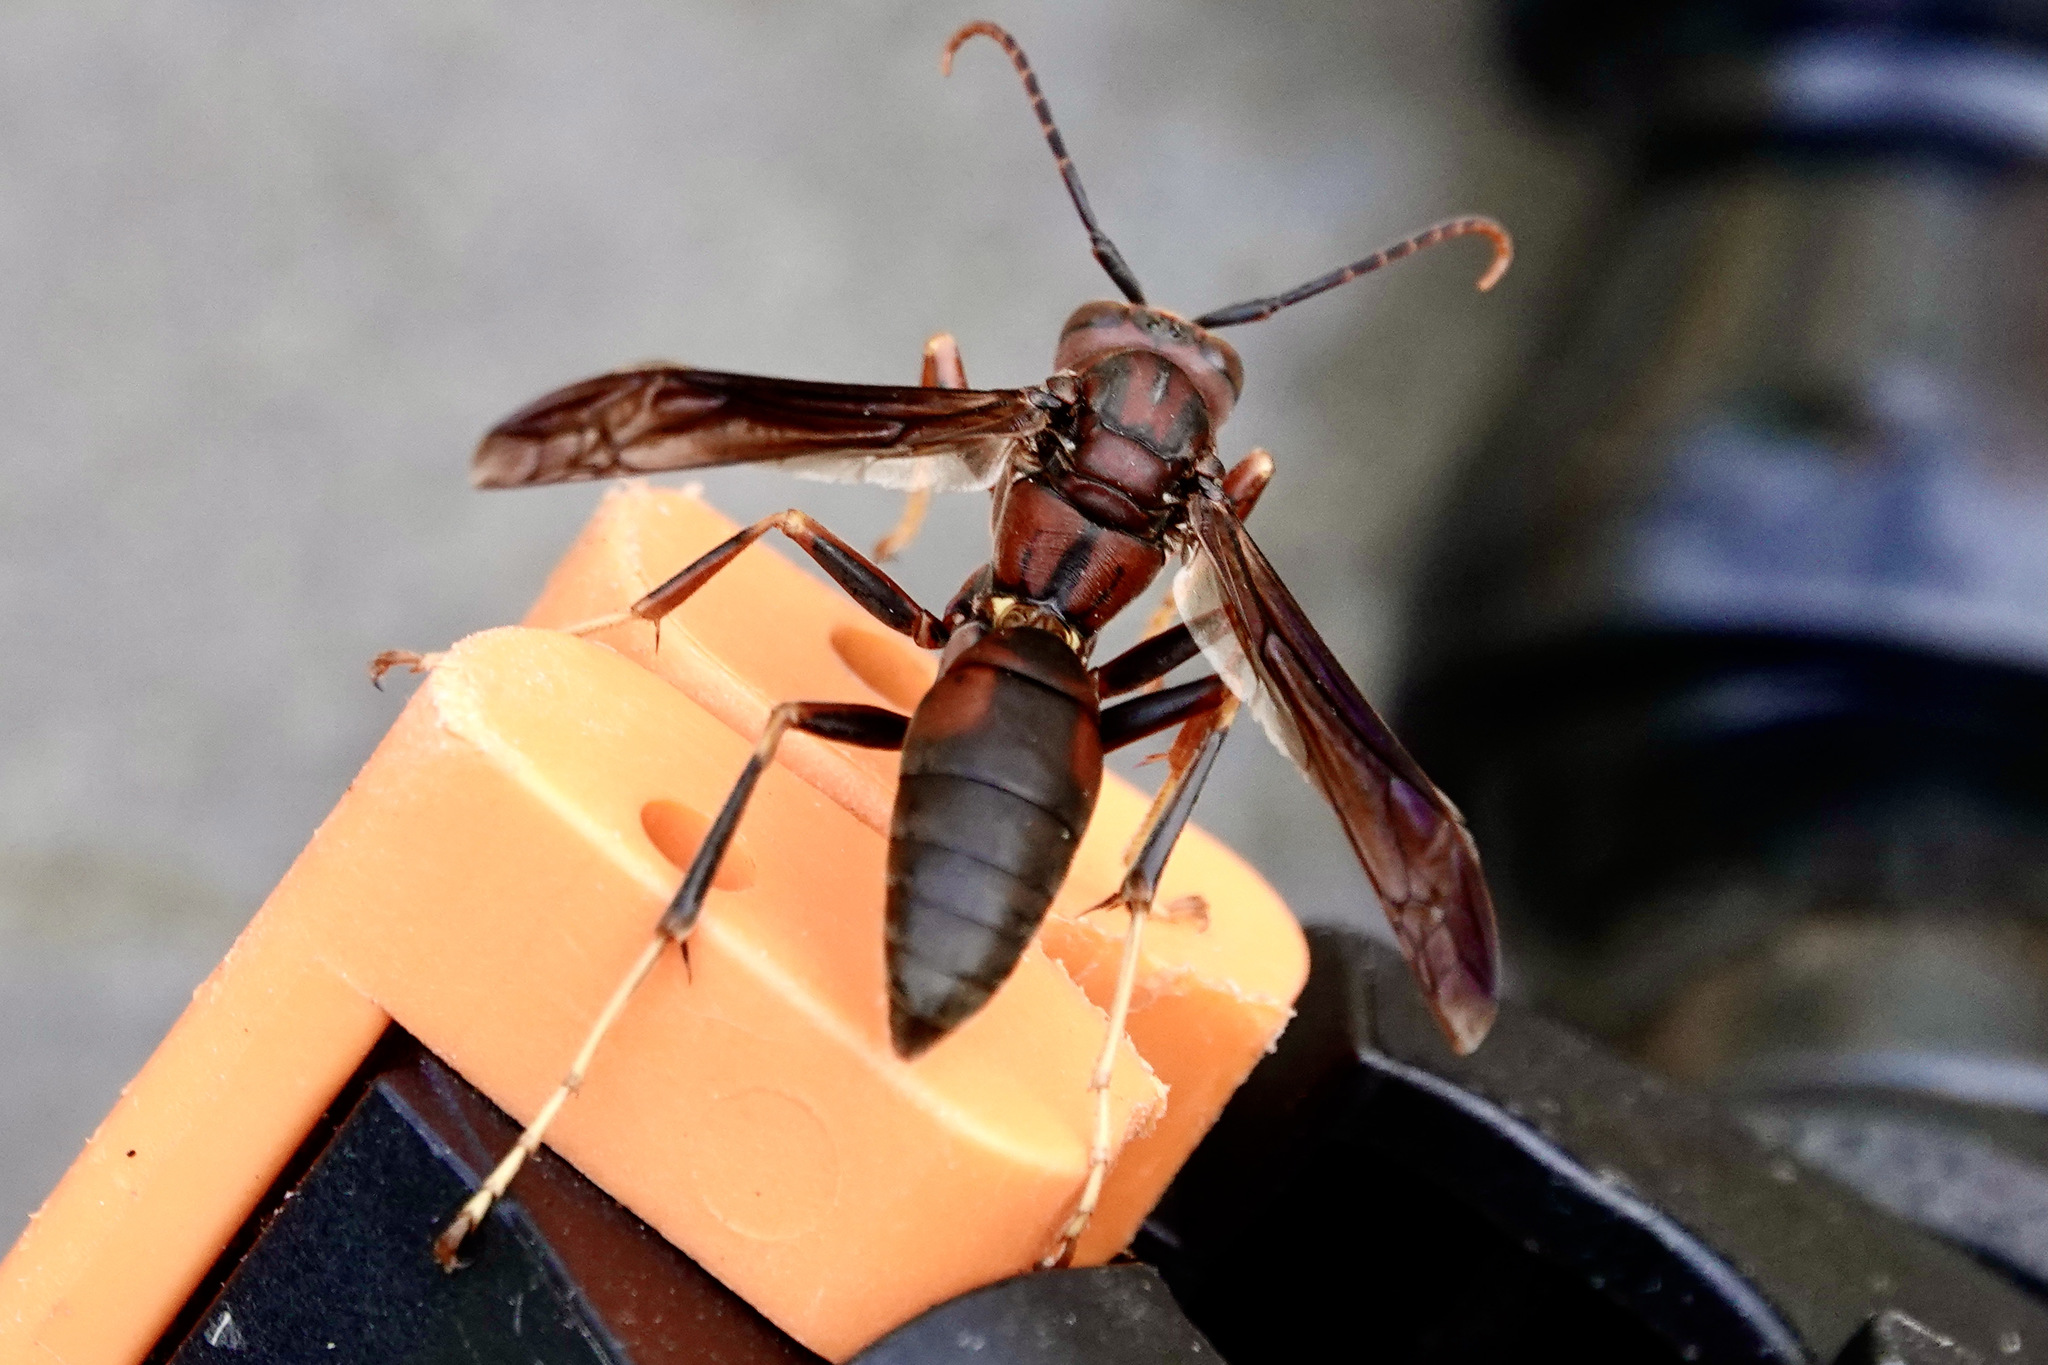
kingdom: Animalia
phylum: Arthropoda
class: Insecta
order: Hymenoptera
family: Eumenidae
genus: Polistes
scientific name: Polistes metricus
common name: Metric paper wasp
